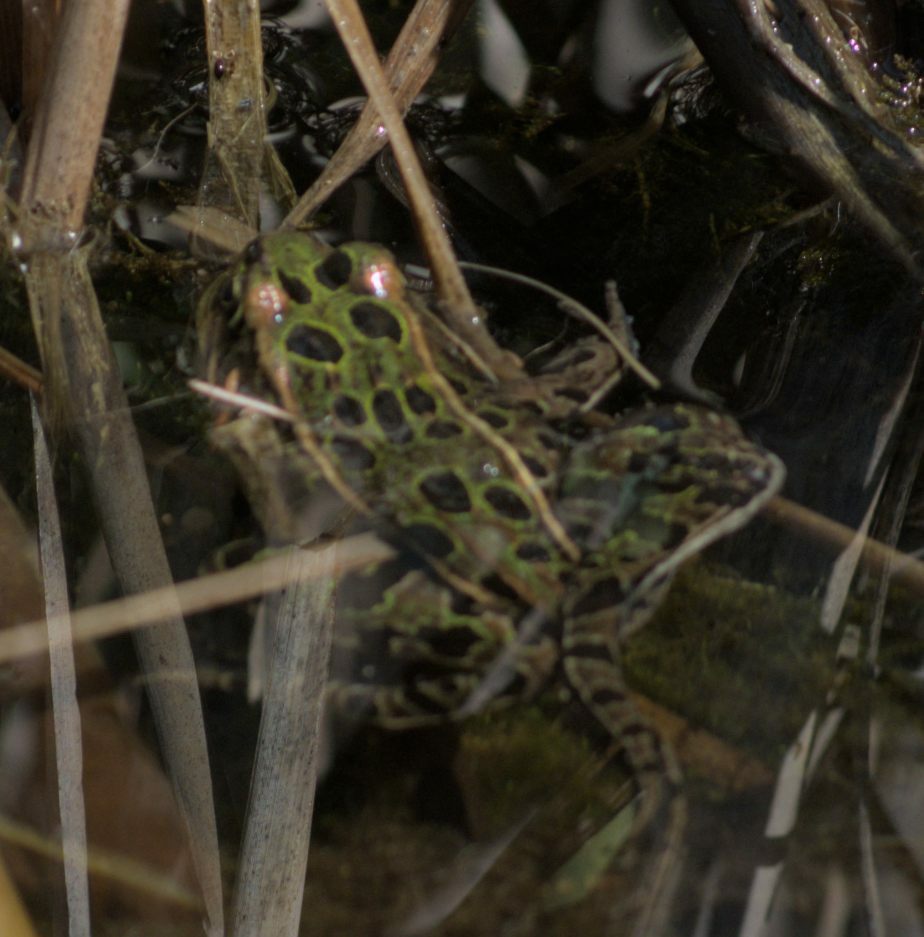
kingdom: Animalia
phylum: Chordata
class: Amphibia
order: Anura
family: Ranidae
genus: Lithobates
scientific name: Lithobates pipiens
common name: Northern leopard frog
